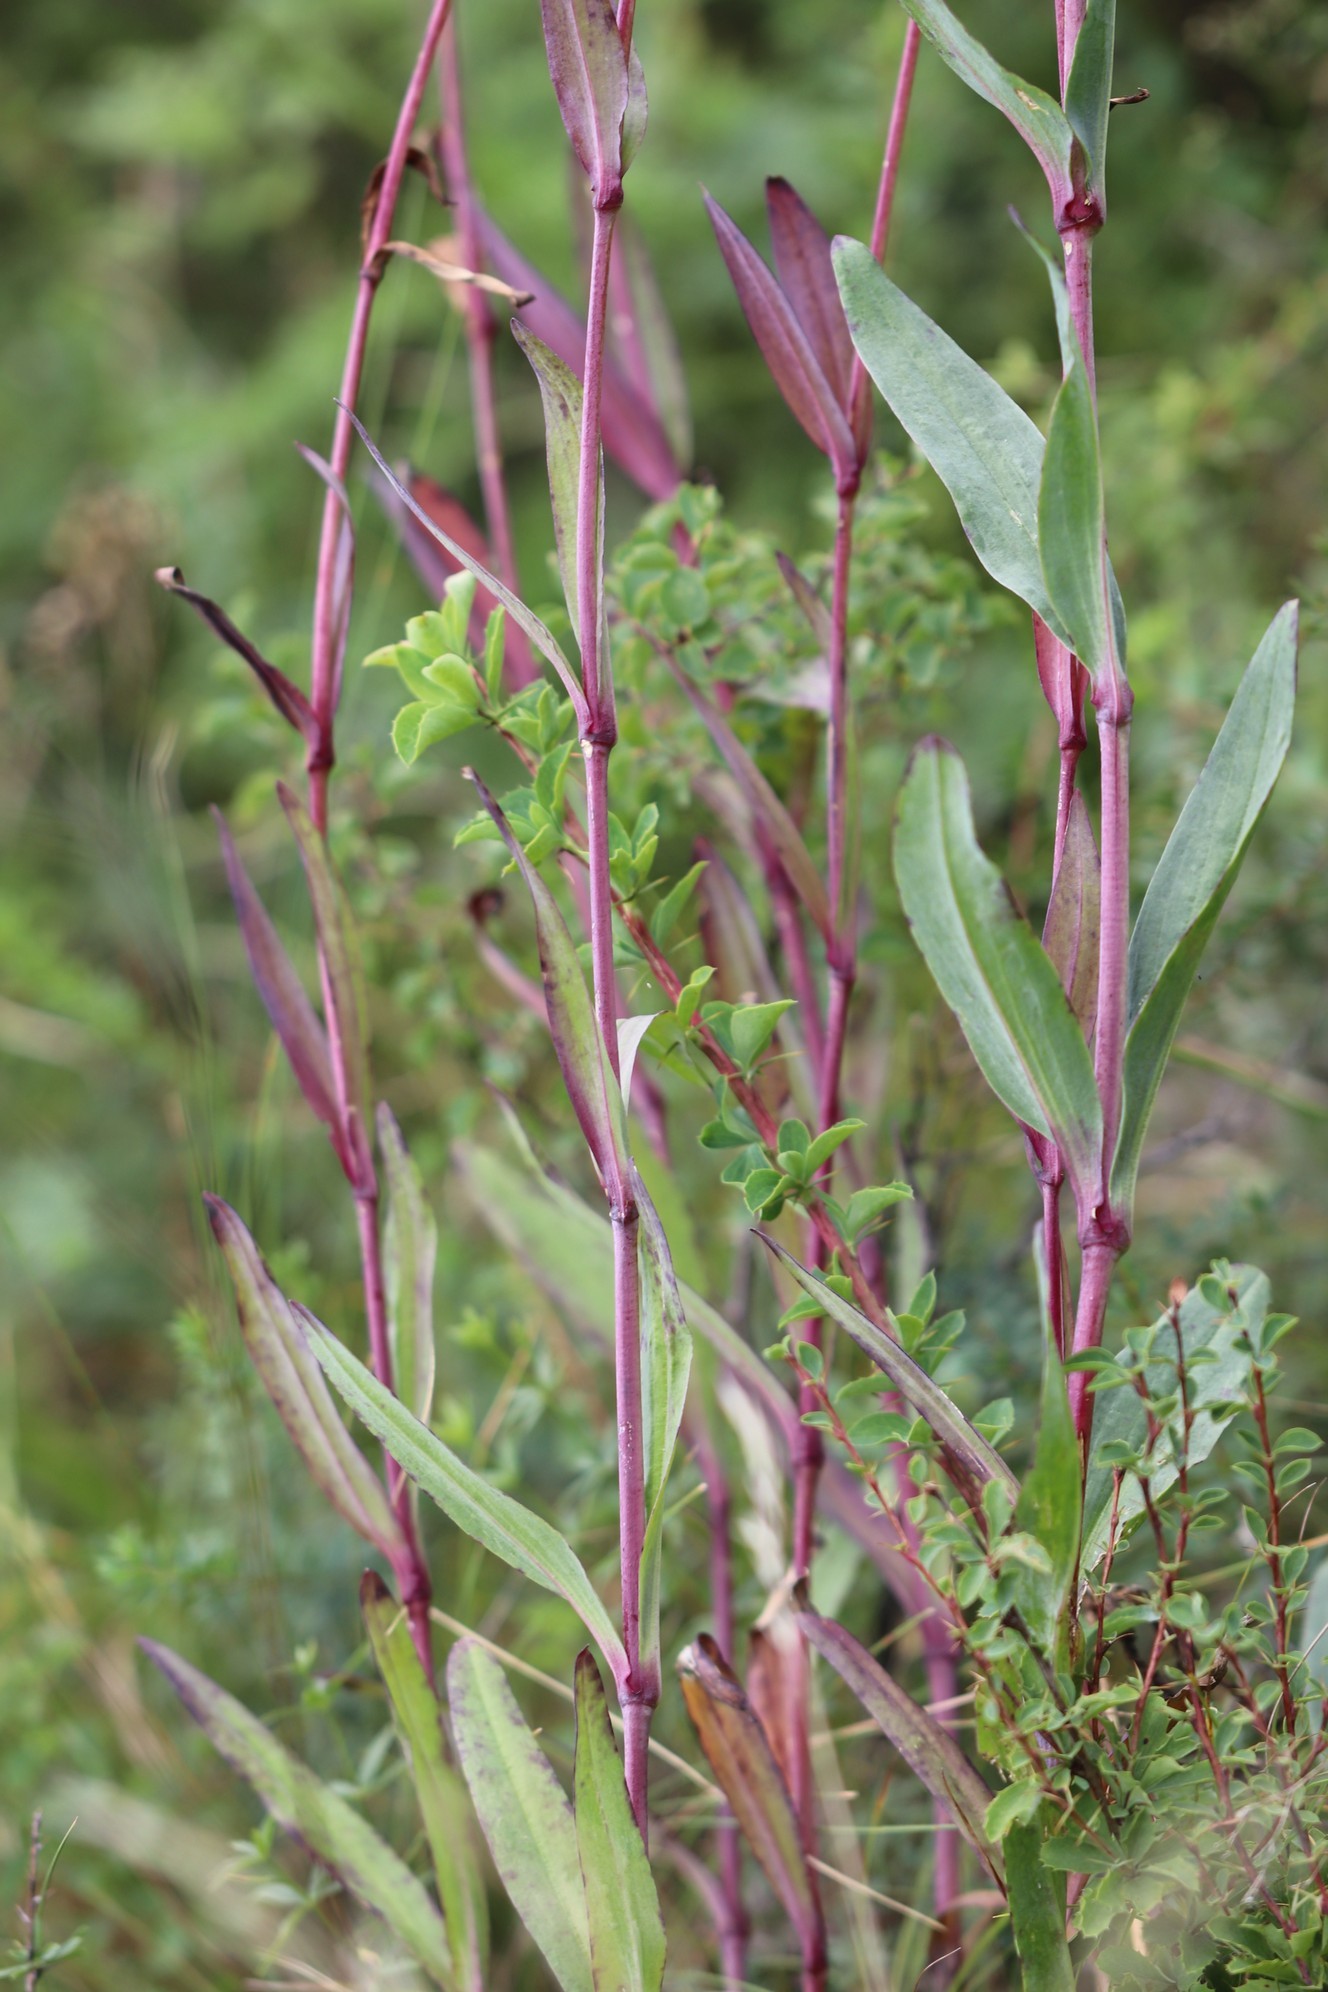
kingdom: Plantae
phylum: Tracheophyta
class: Magnoliopsida
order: Caryophyllales
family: Caryophyllaceae
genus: Gypsophila
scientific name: Gypsophila altissima
